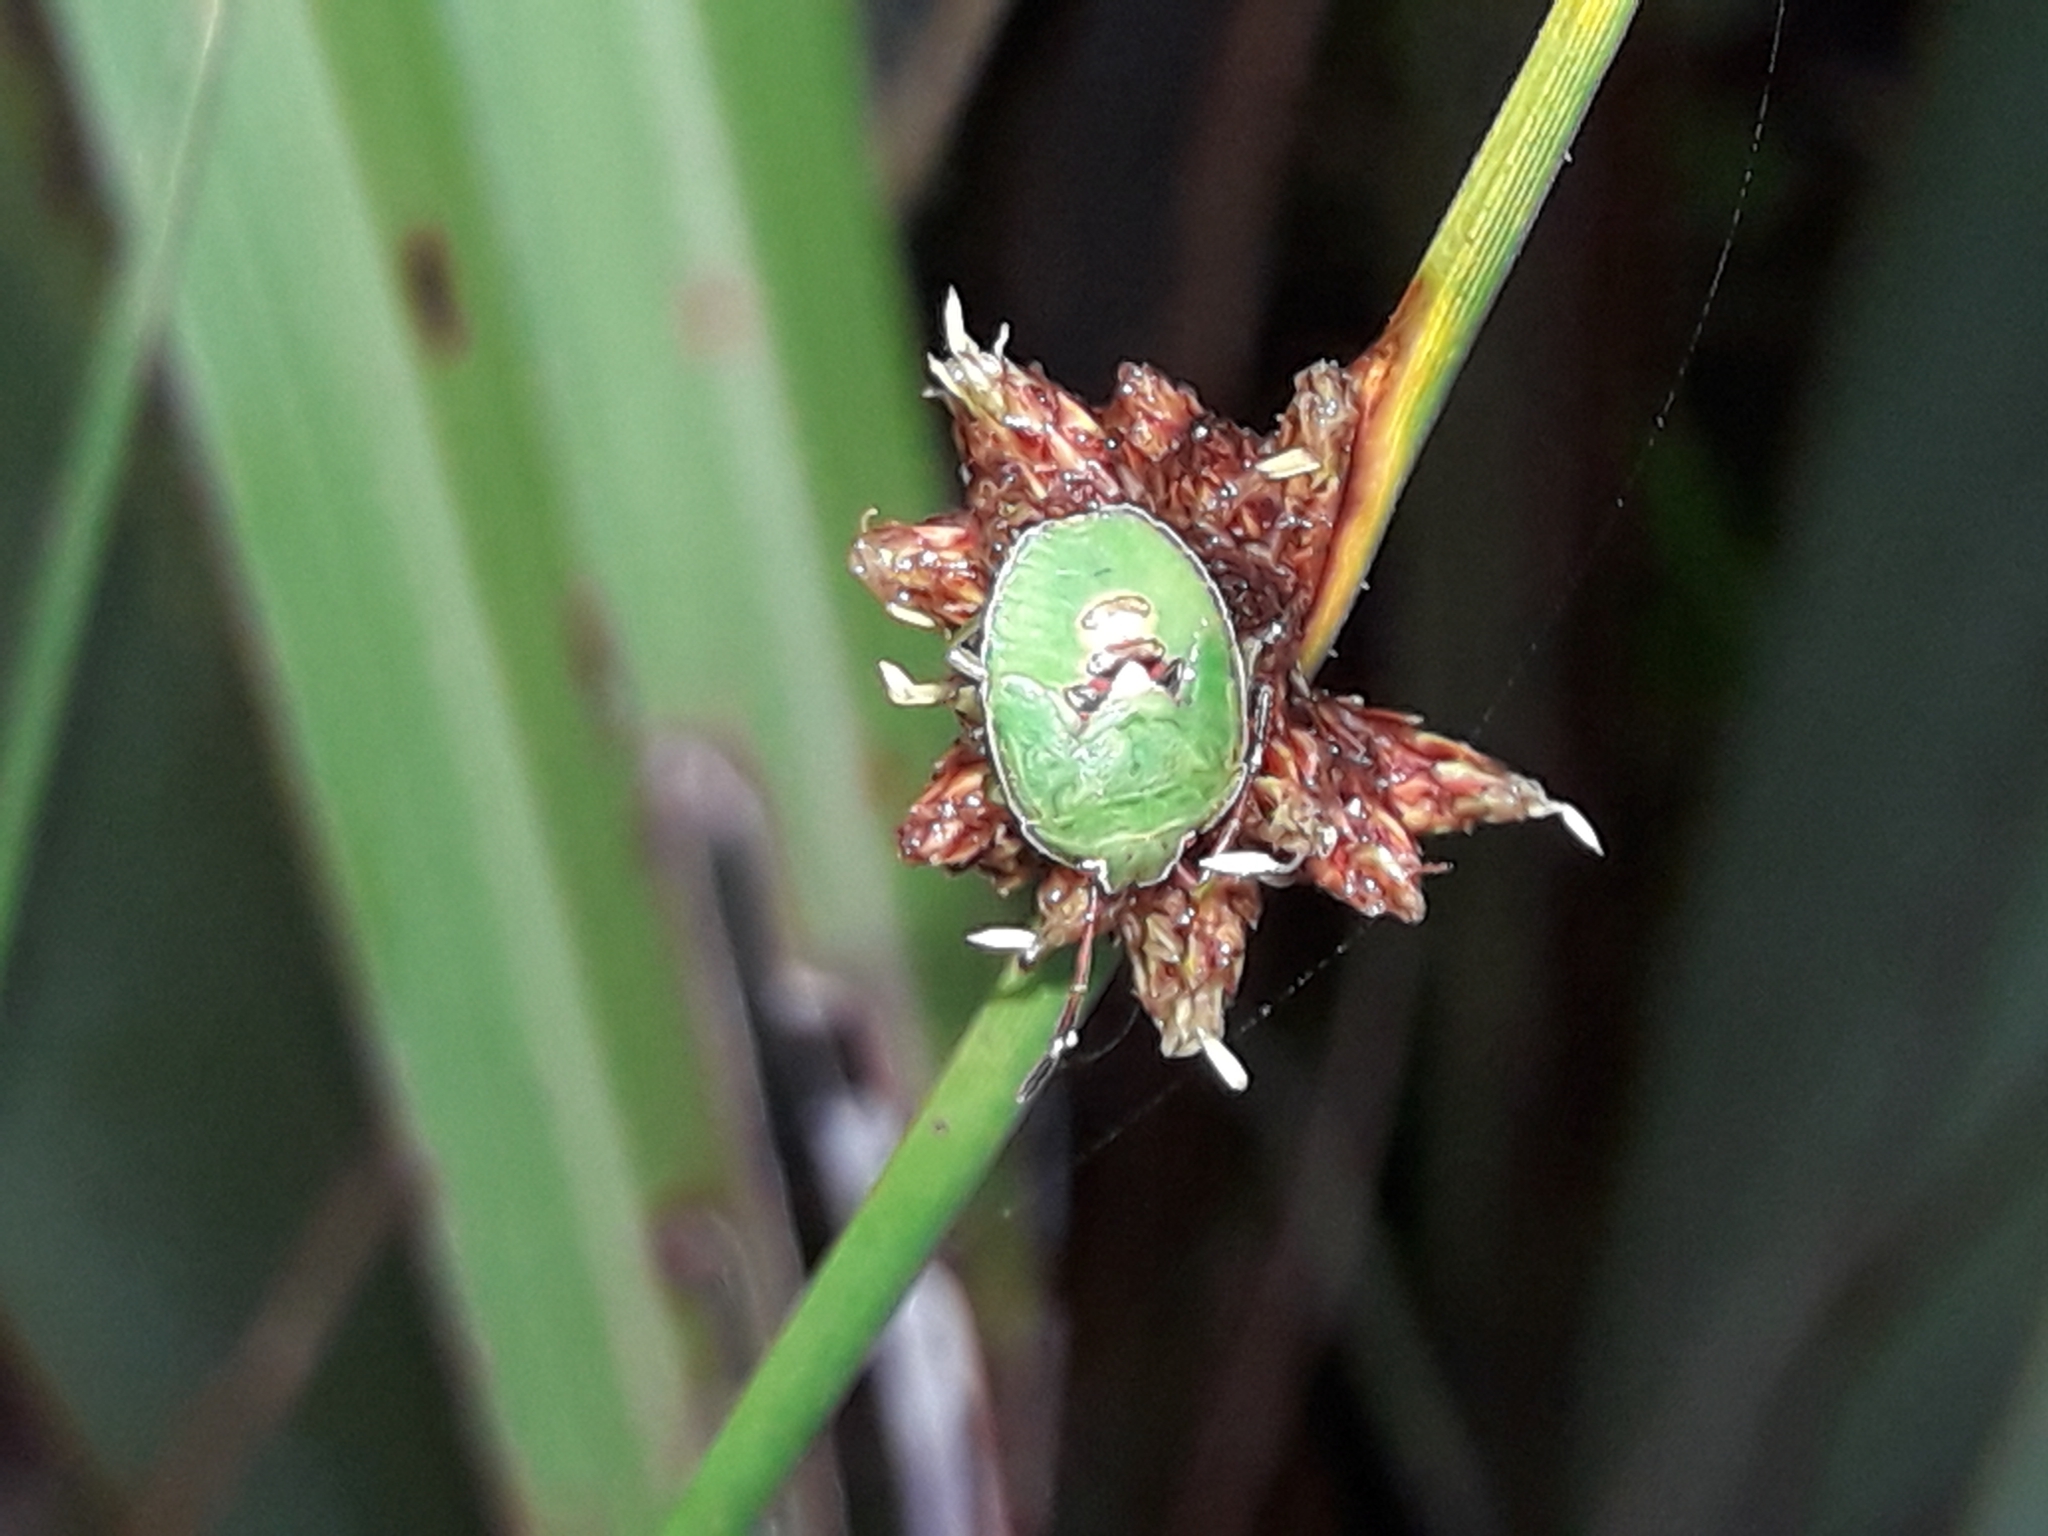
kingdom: Animalia
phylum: Arthropoda
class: Insecta
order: Hemiptera
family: Acanthosomatidae
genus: Oncacontias
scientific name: Oncacontias vittatus
